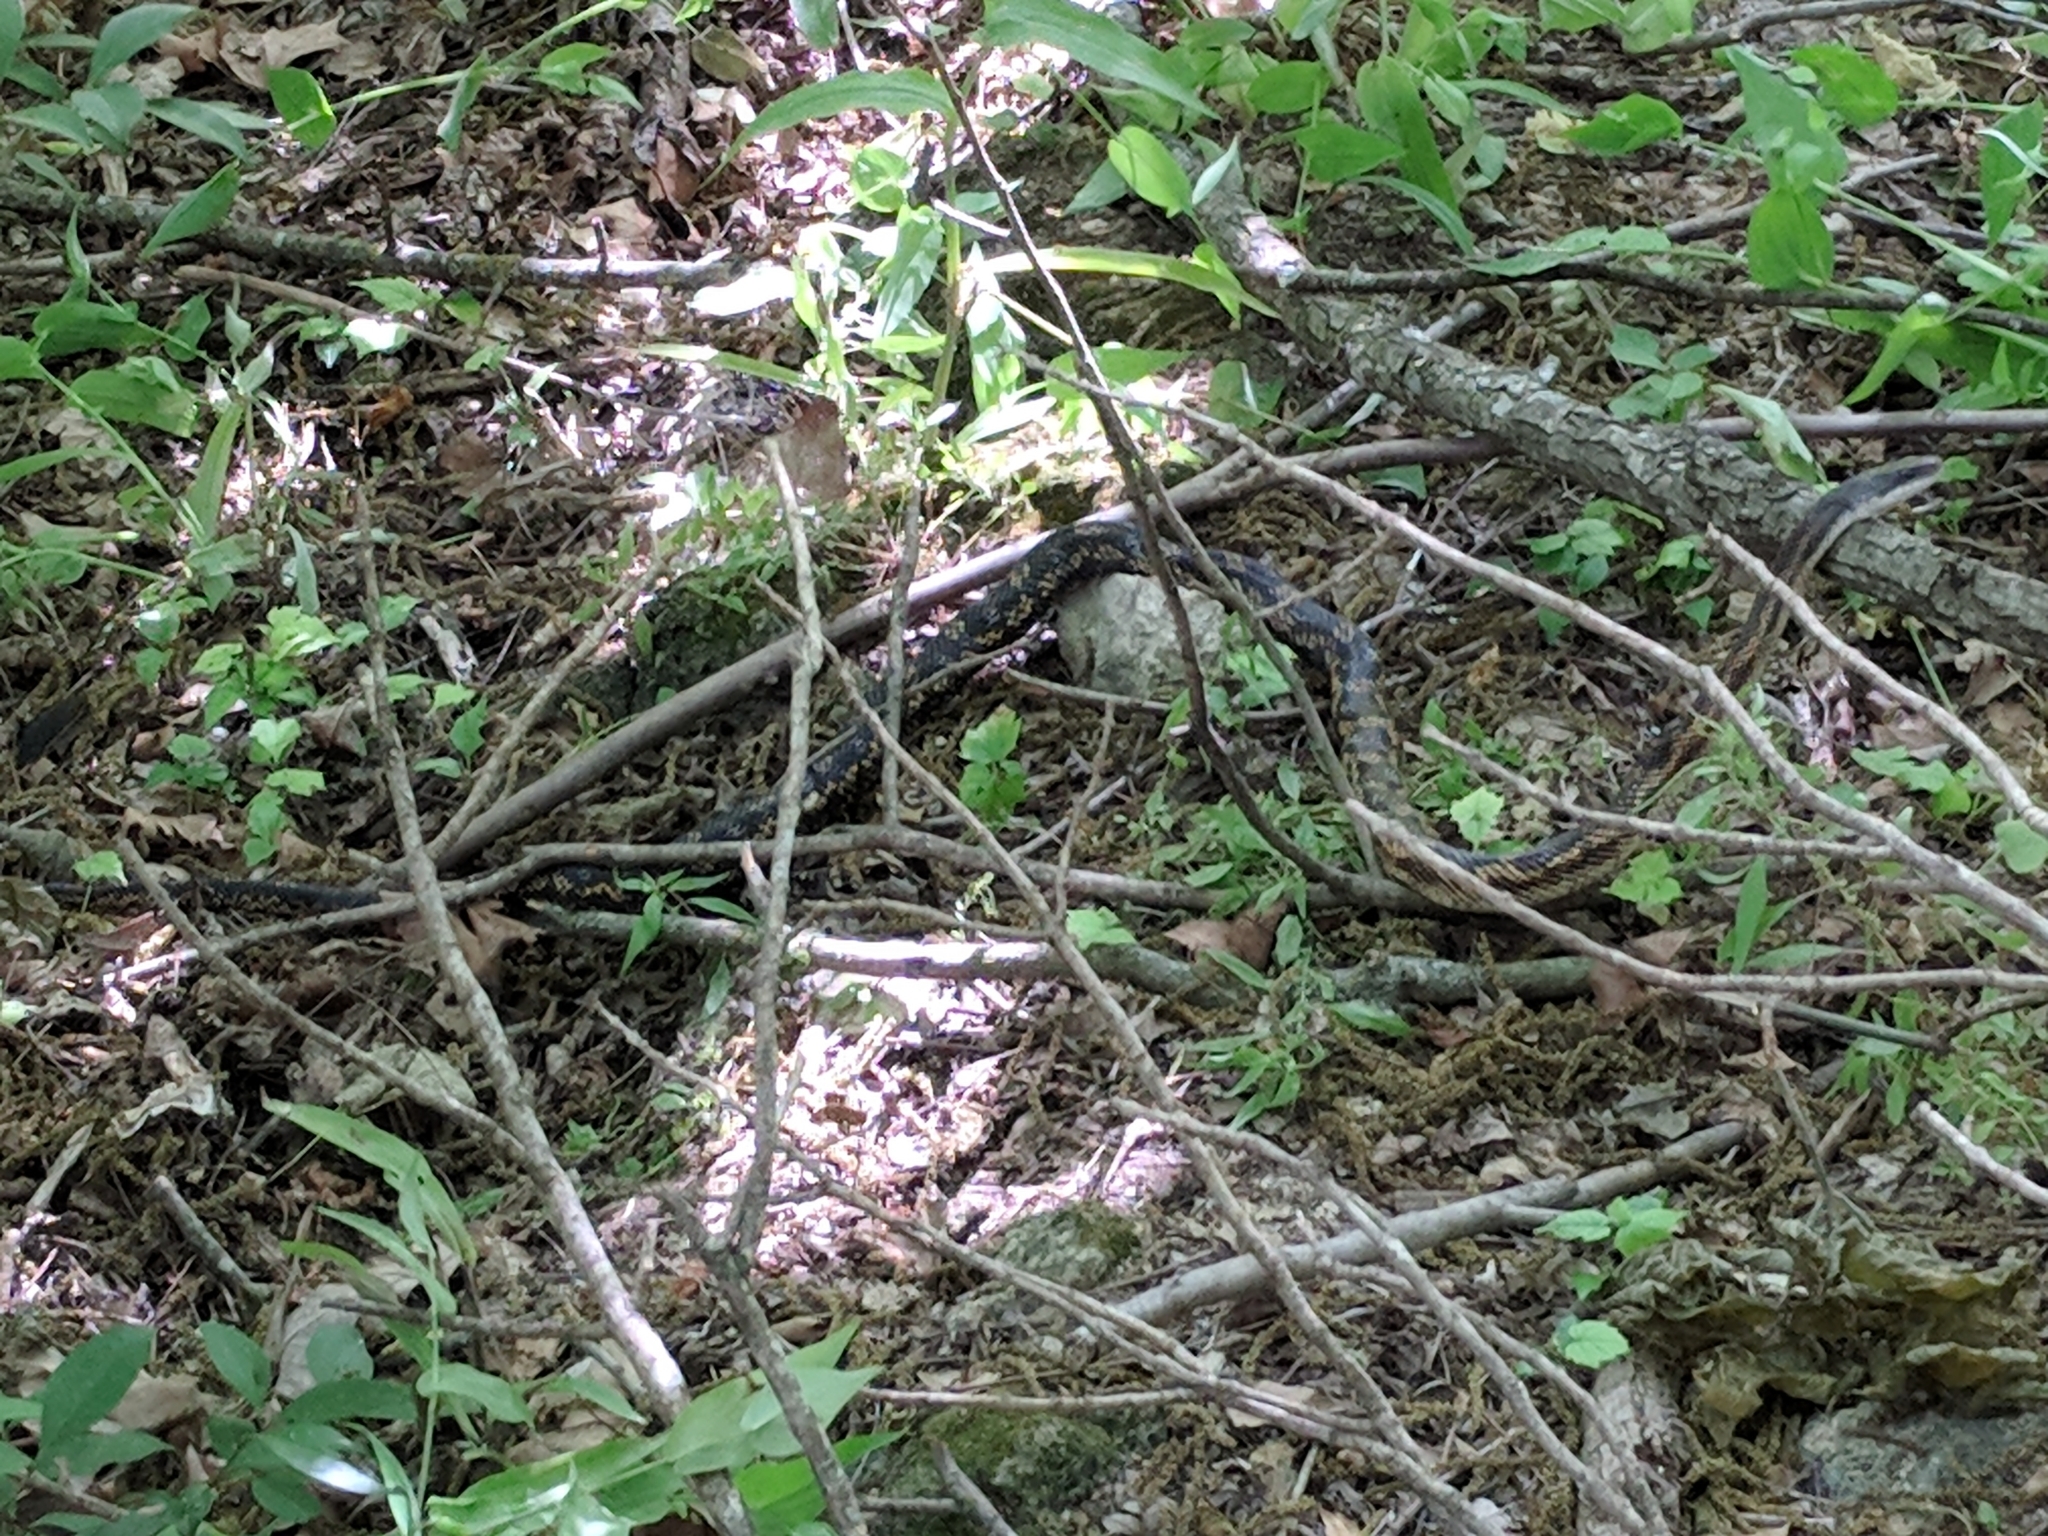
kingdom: Animalia
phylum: Chordata
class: Squamata
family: Colubridae
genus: Pantherophis
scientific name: Pantherophis obsoletus
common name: Black rat snake
